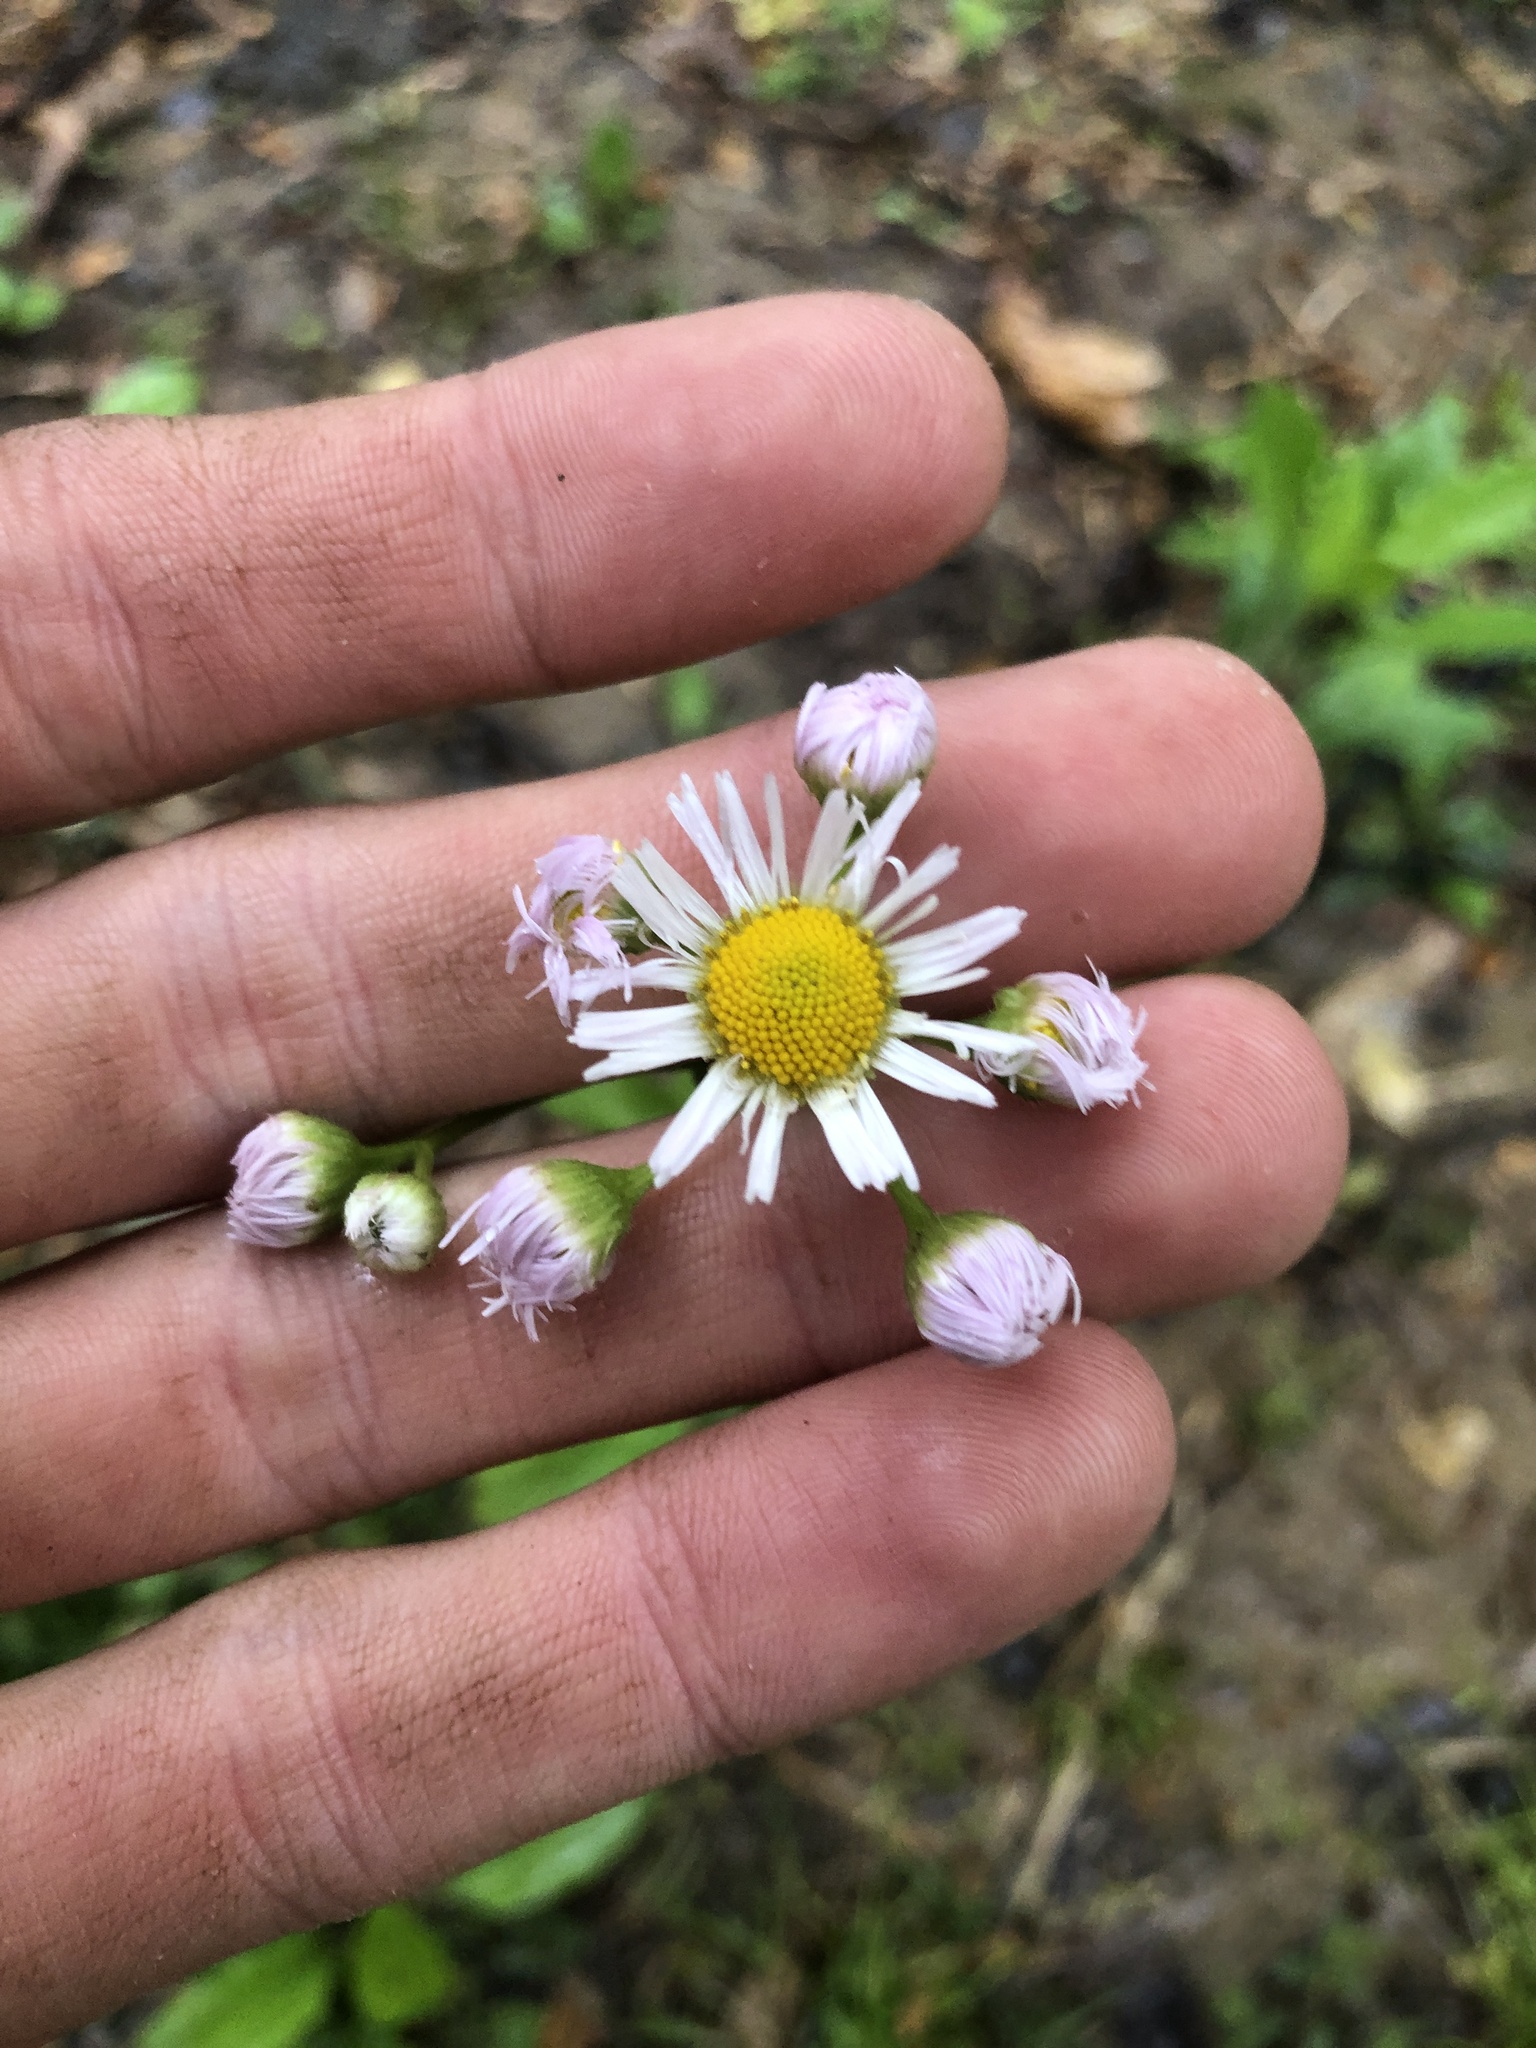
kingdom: Plantae
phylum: Tracheophyta
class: Magnoliopsida
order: Asterales
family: Asteraceae
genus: Erigeron
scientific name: Erigeron philadelphicus
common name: Robin's-plantain
